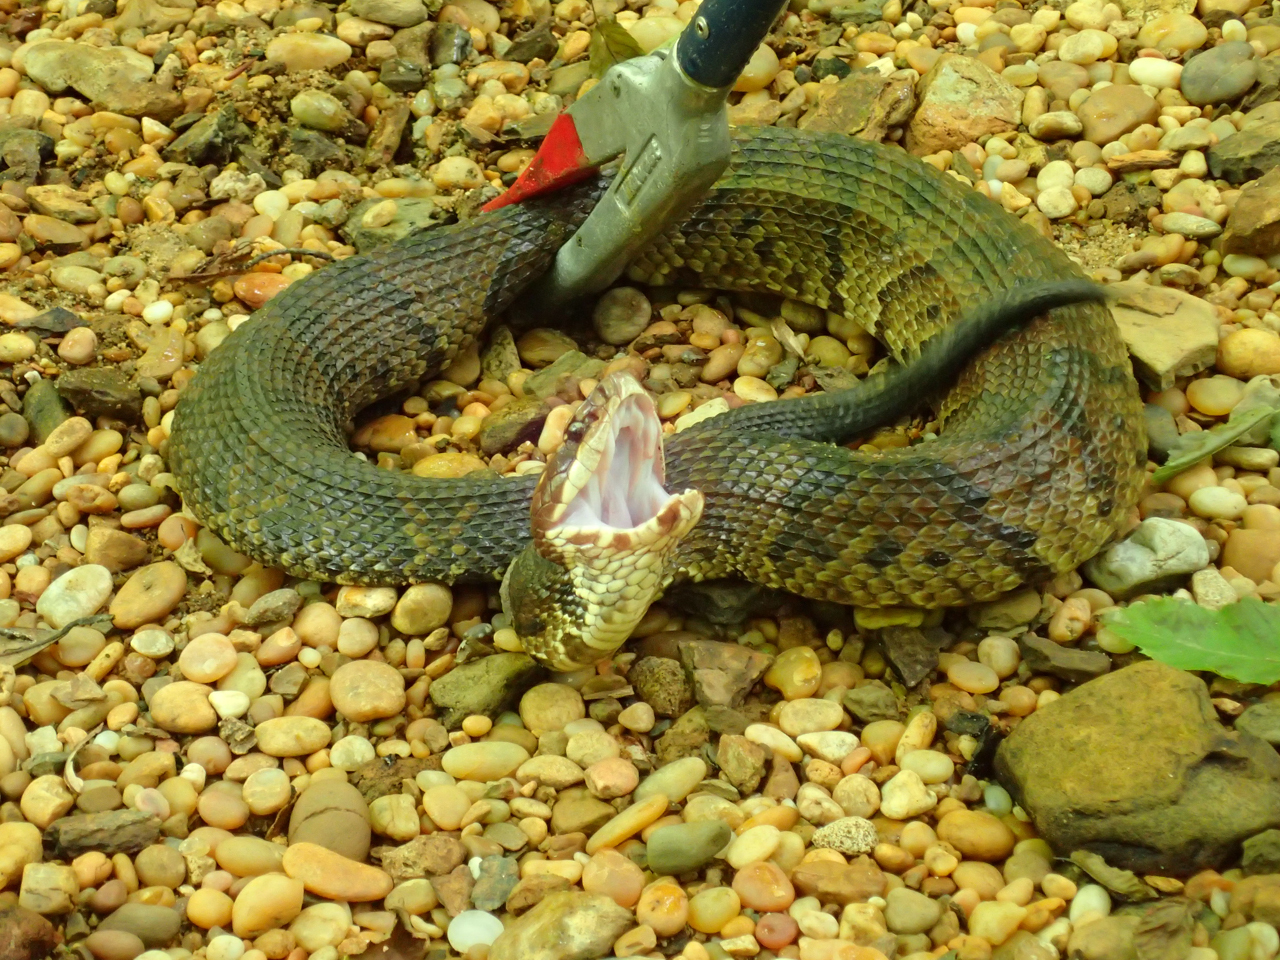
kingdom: Animalia
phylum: Chordata
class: Squamata
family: Viperidae
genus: Agkistrodon
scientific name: Agkistrodon piscivorus
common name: Cottonmouth
